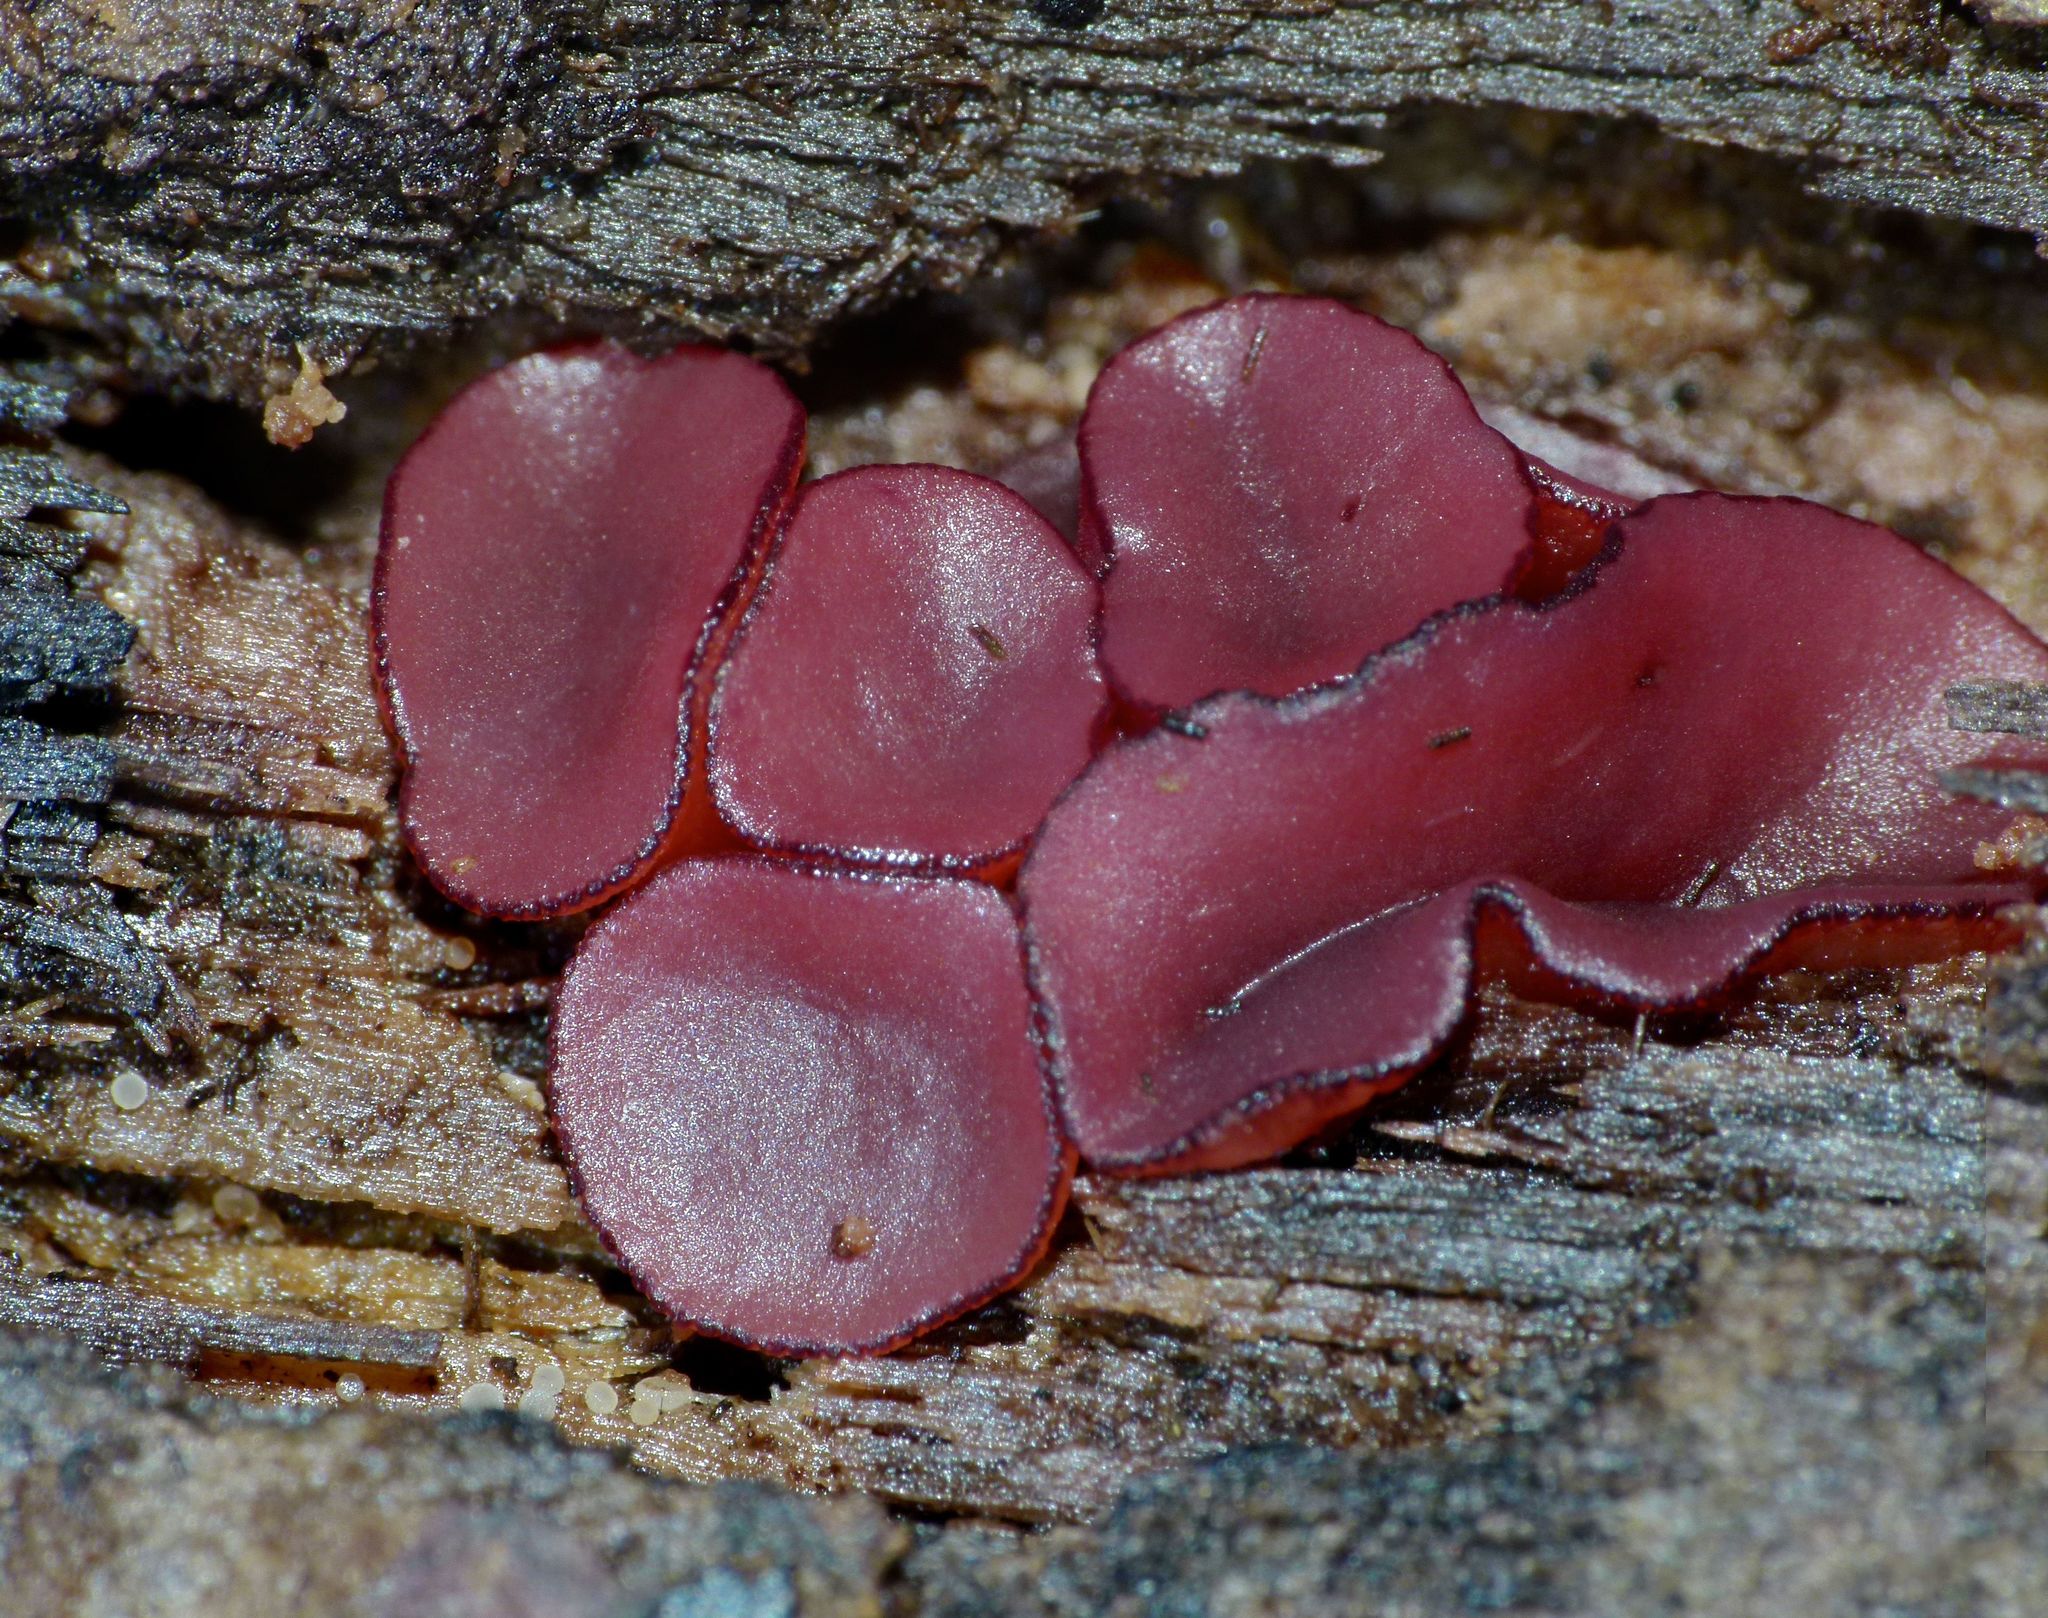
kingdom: Fungi
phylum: Ascomycota
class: Leotiomycetes
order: Helotiales
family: Gelatinodiscaceae
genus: Ascocoryne
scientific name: Ascocoryne sarcoides
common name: Purple jellydisc
